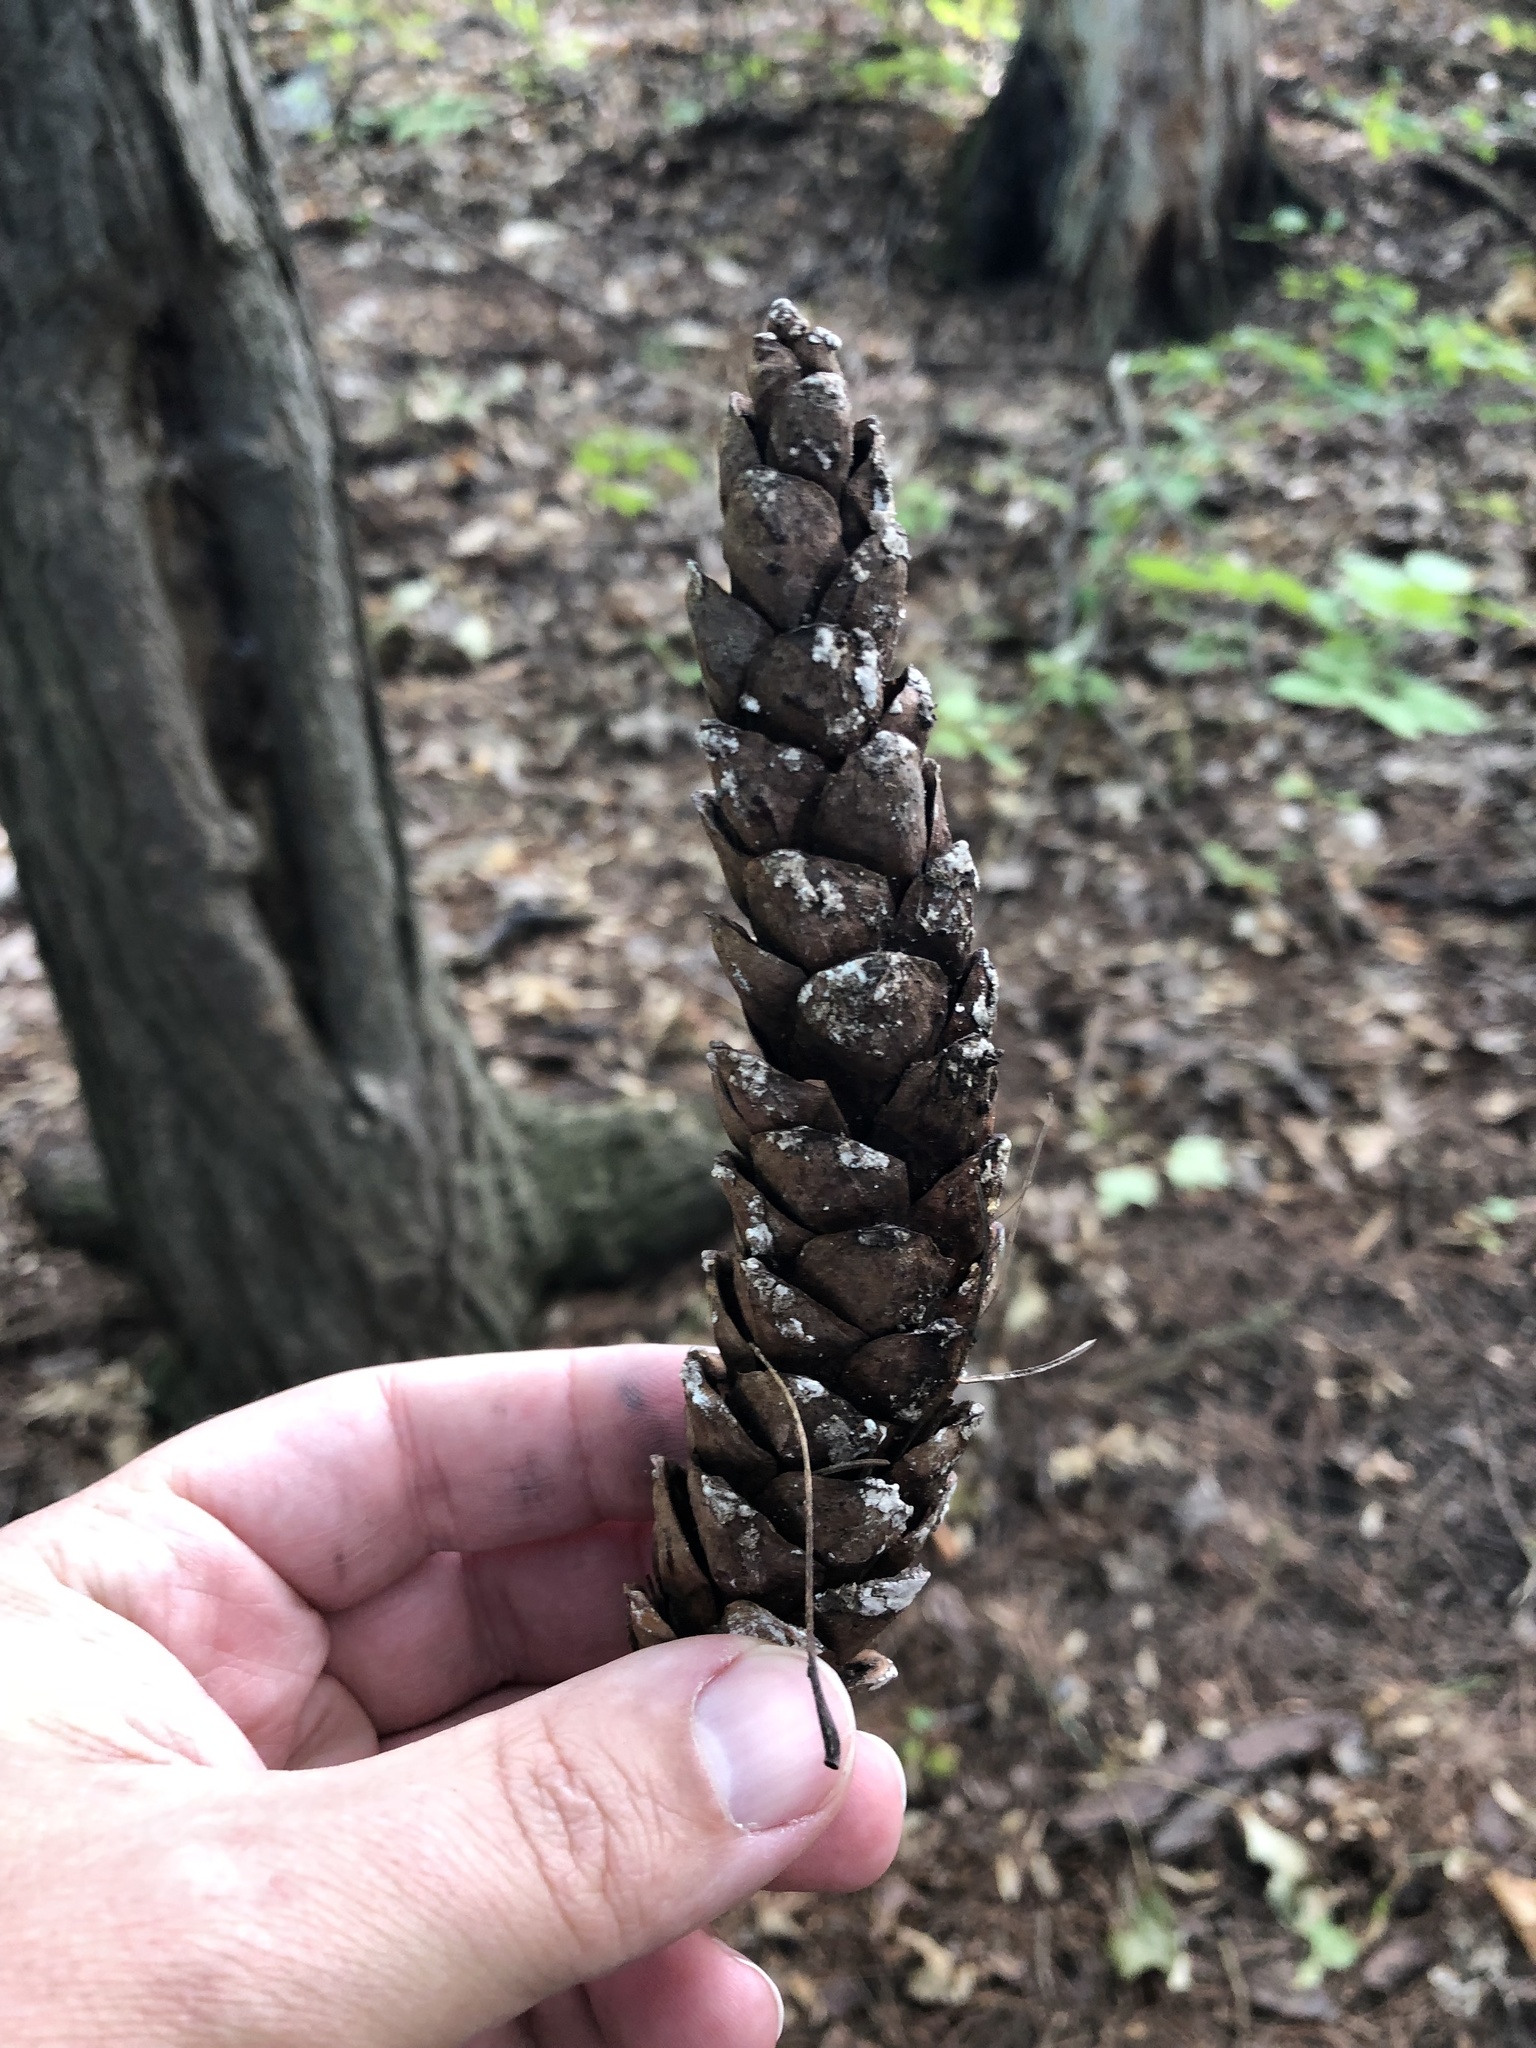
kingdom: Plantae
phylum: Tracheophyta
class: Pinopsida
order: Pinales
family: Pinaceae
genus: Pinus
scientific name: Pinus strobus
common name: Weymouth pine
